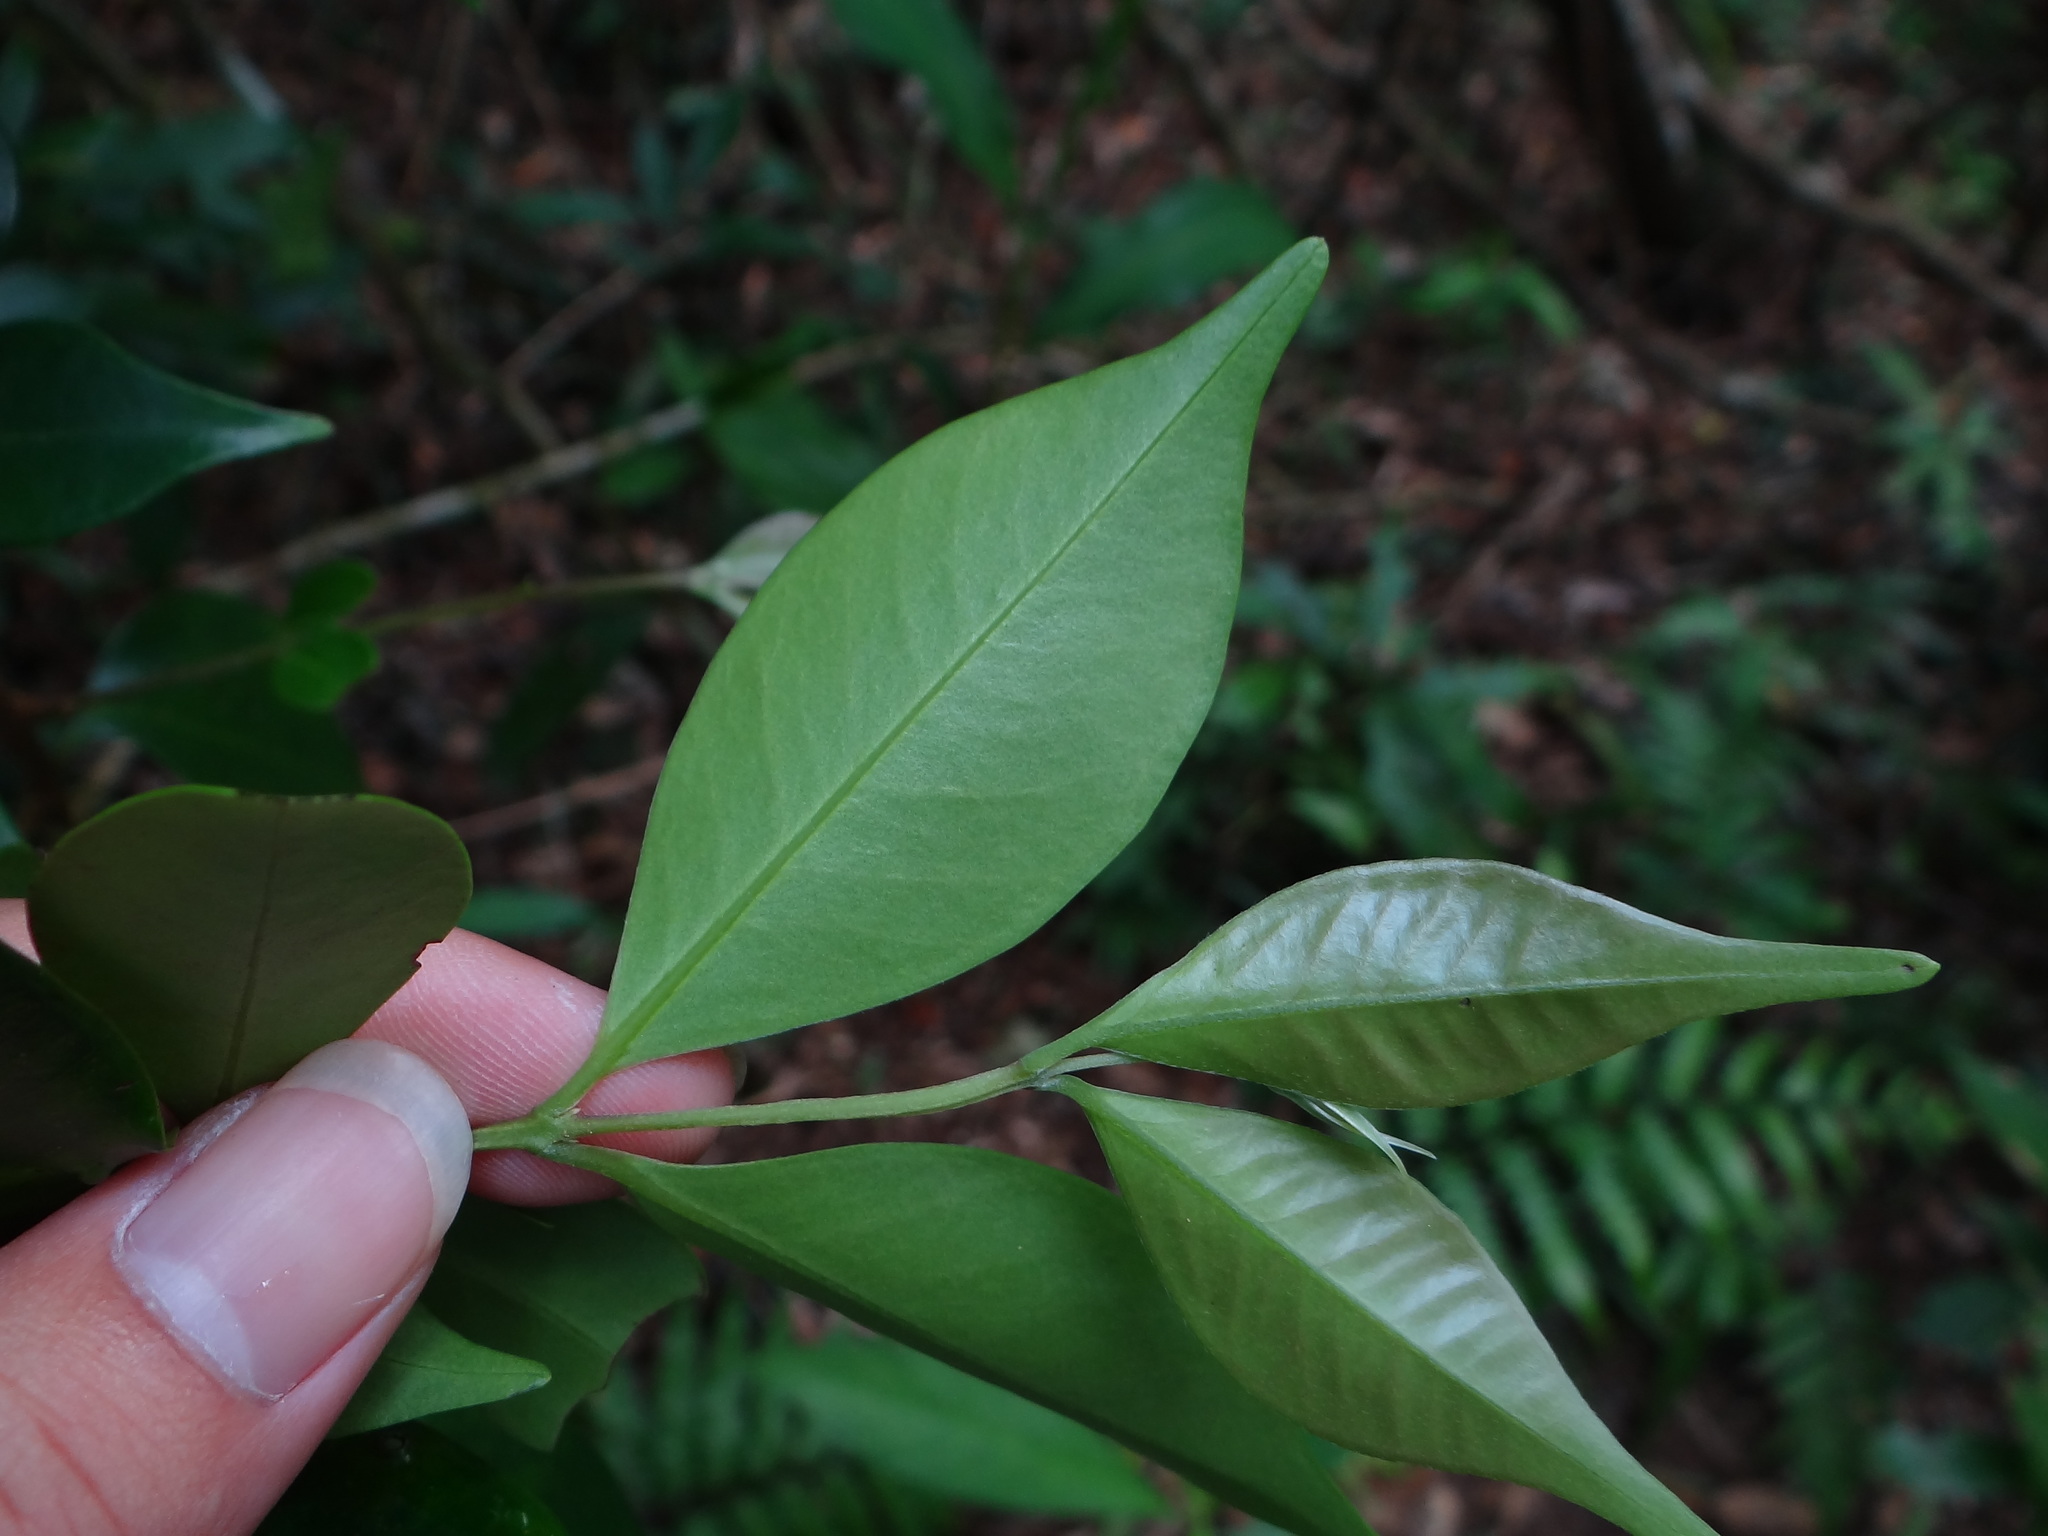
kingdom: Plantae
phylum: Tracheophyta
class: Magnoliopsida
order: Myrtales
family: Myrtaceae
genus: Decaspermum
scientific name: Decaspermum gracilentum
